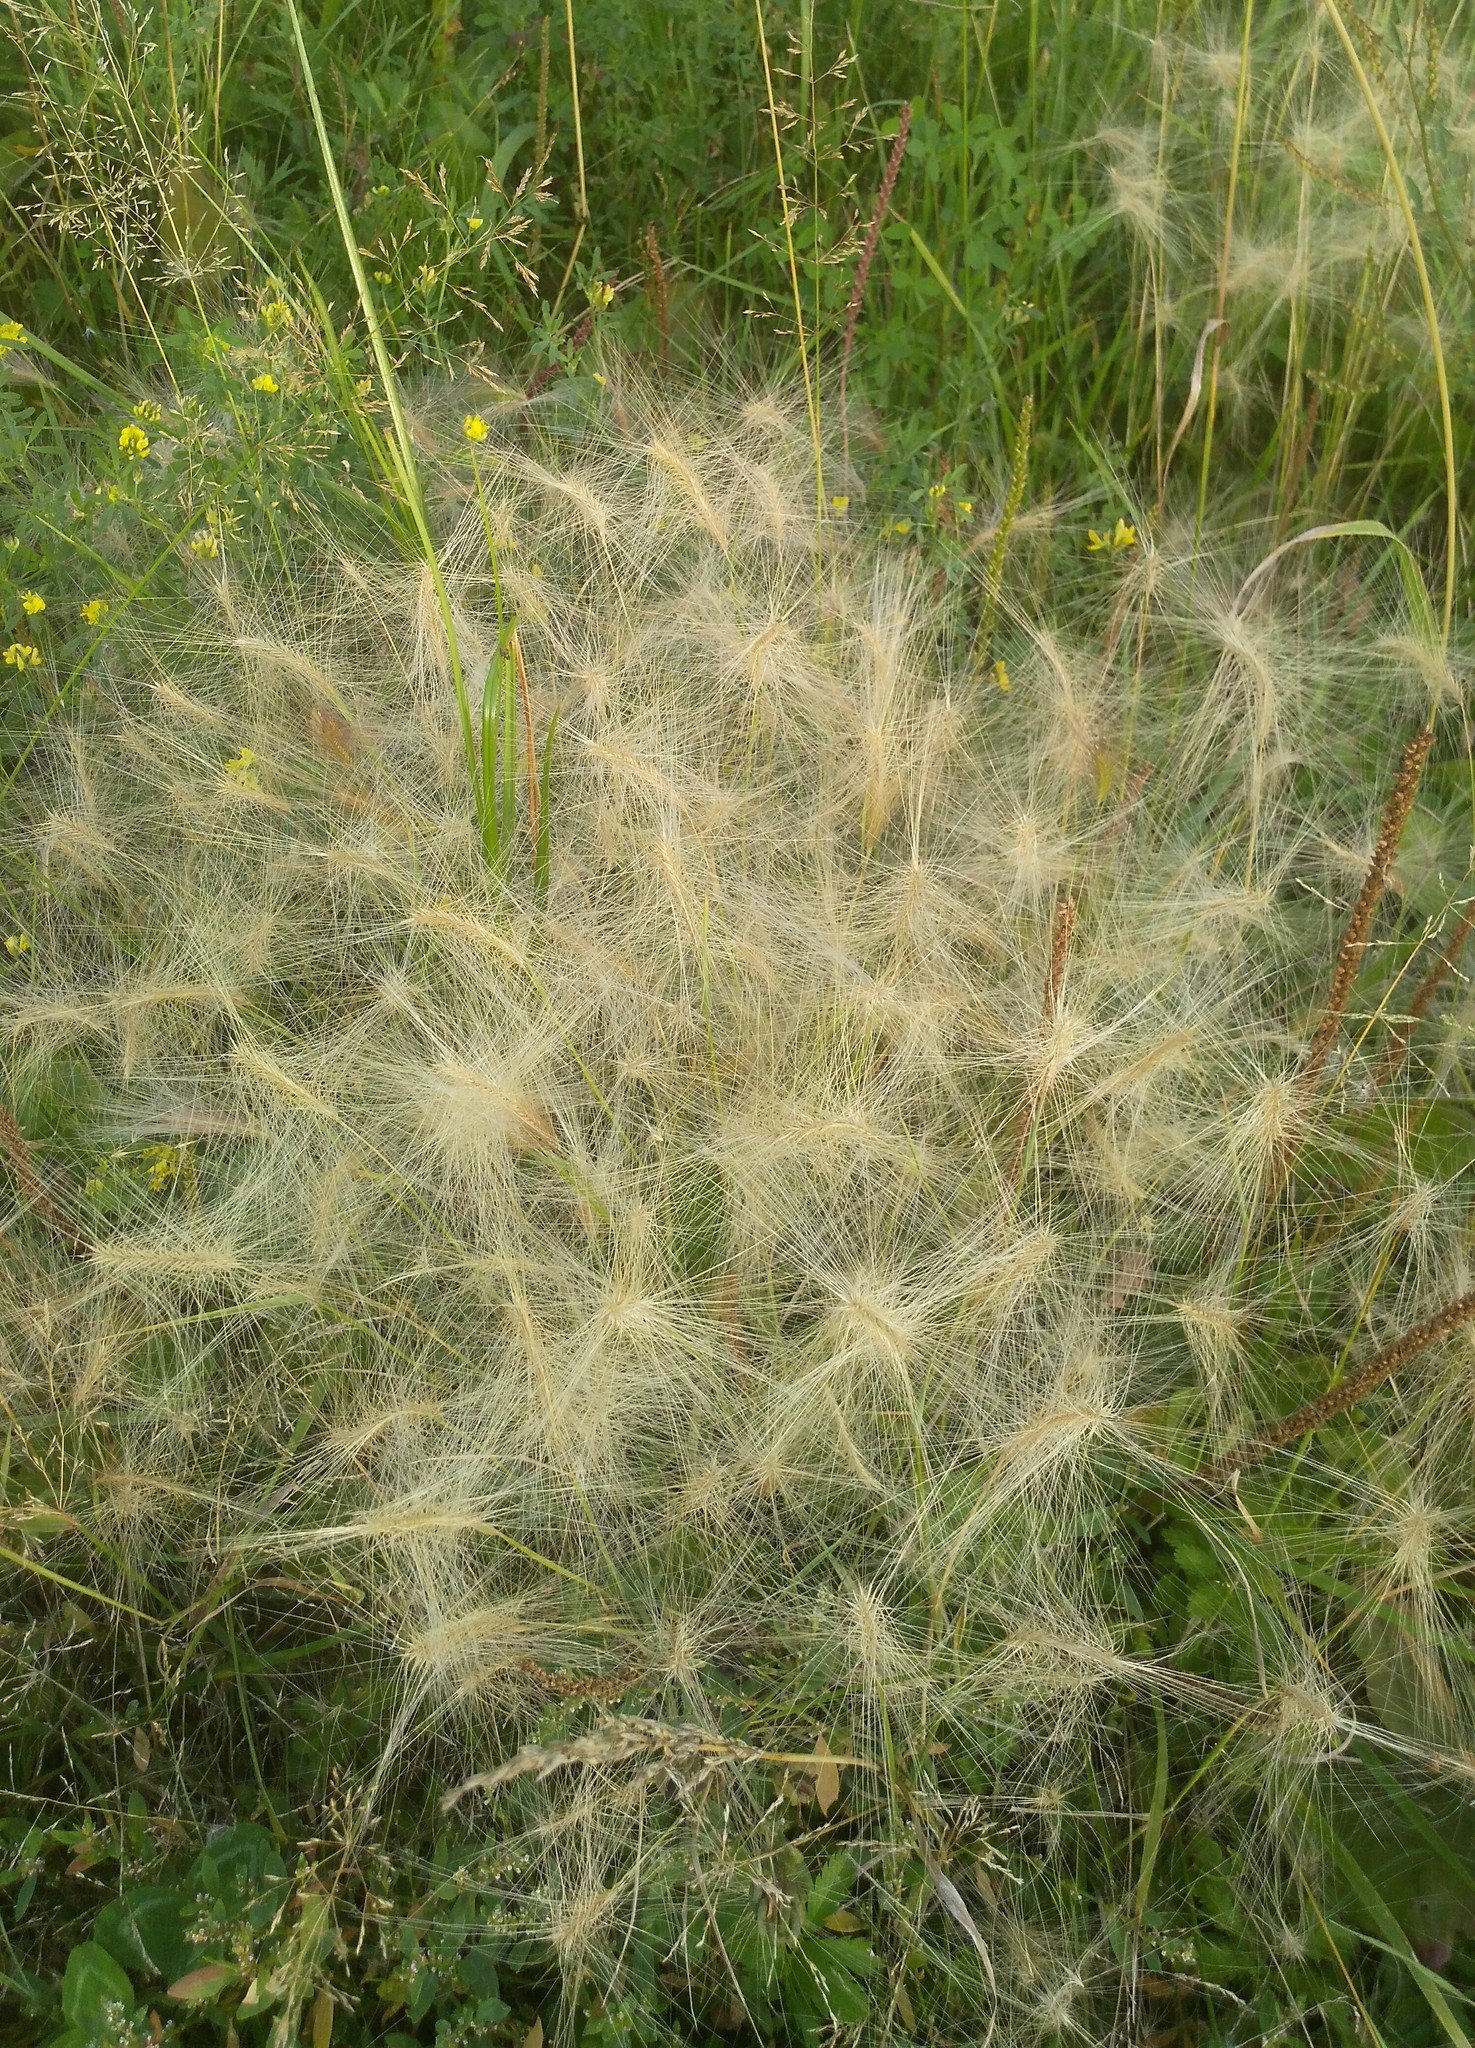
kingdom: Plantae
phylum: Tracheophyta
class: Liliopsida
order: Poales
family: Poaceae
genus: Hordeum
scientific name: Hordeum jubatum
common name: Foxtail barley
